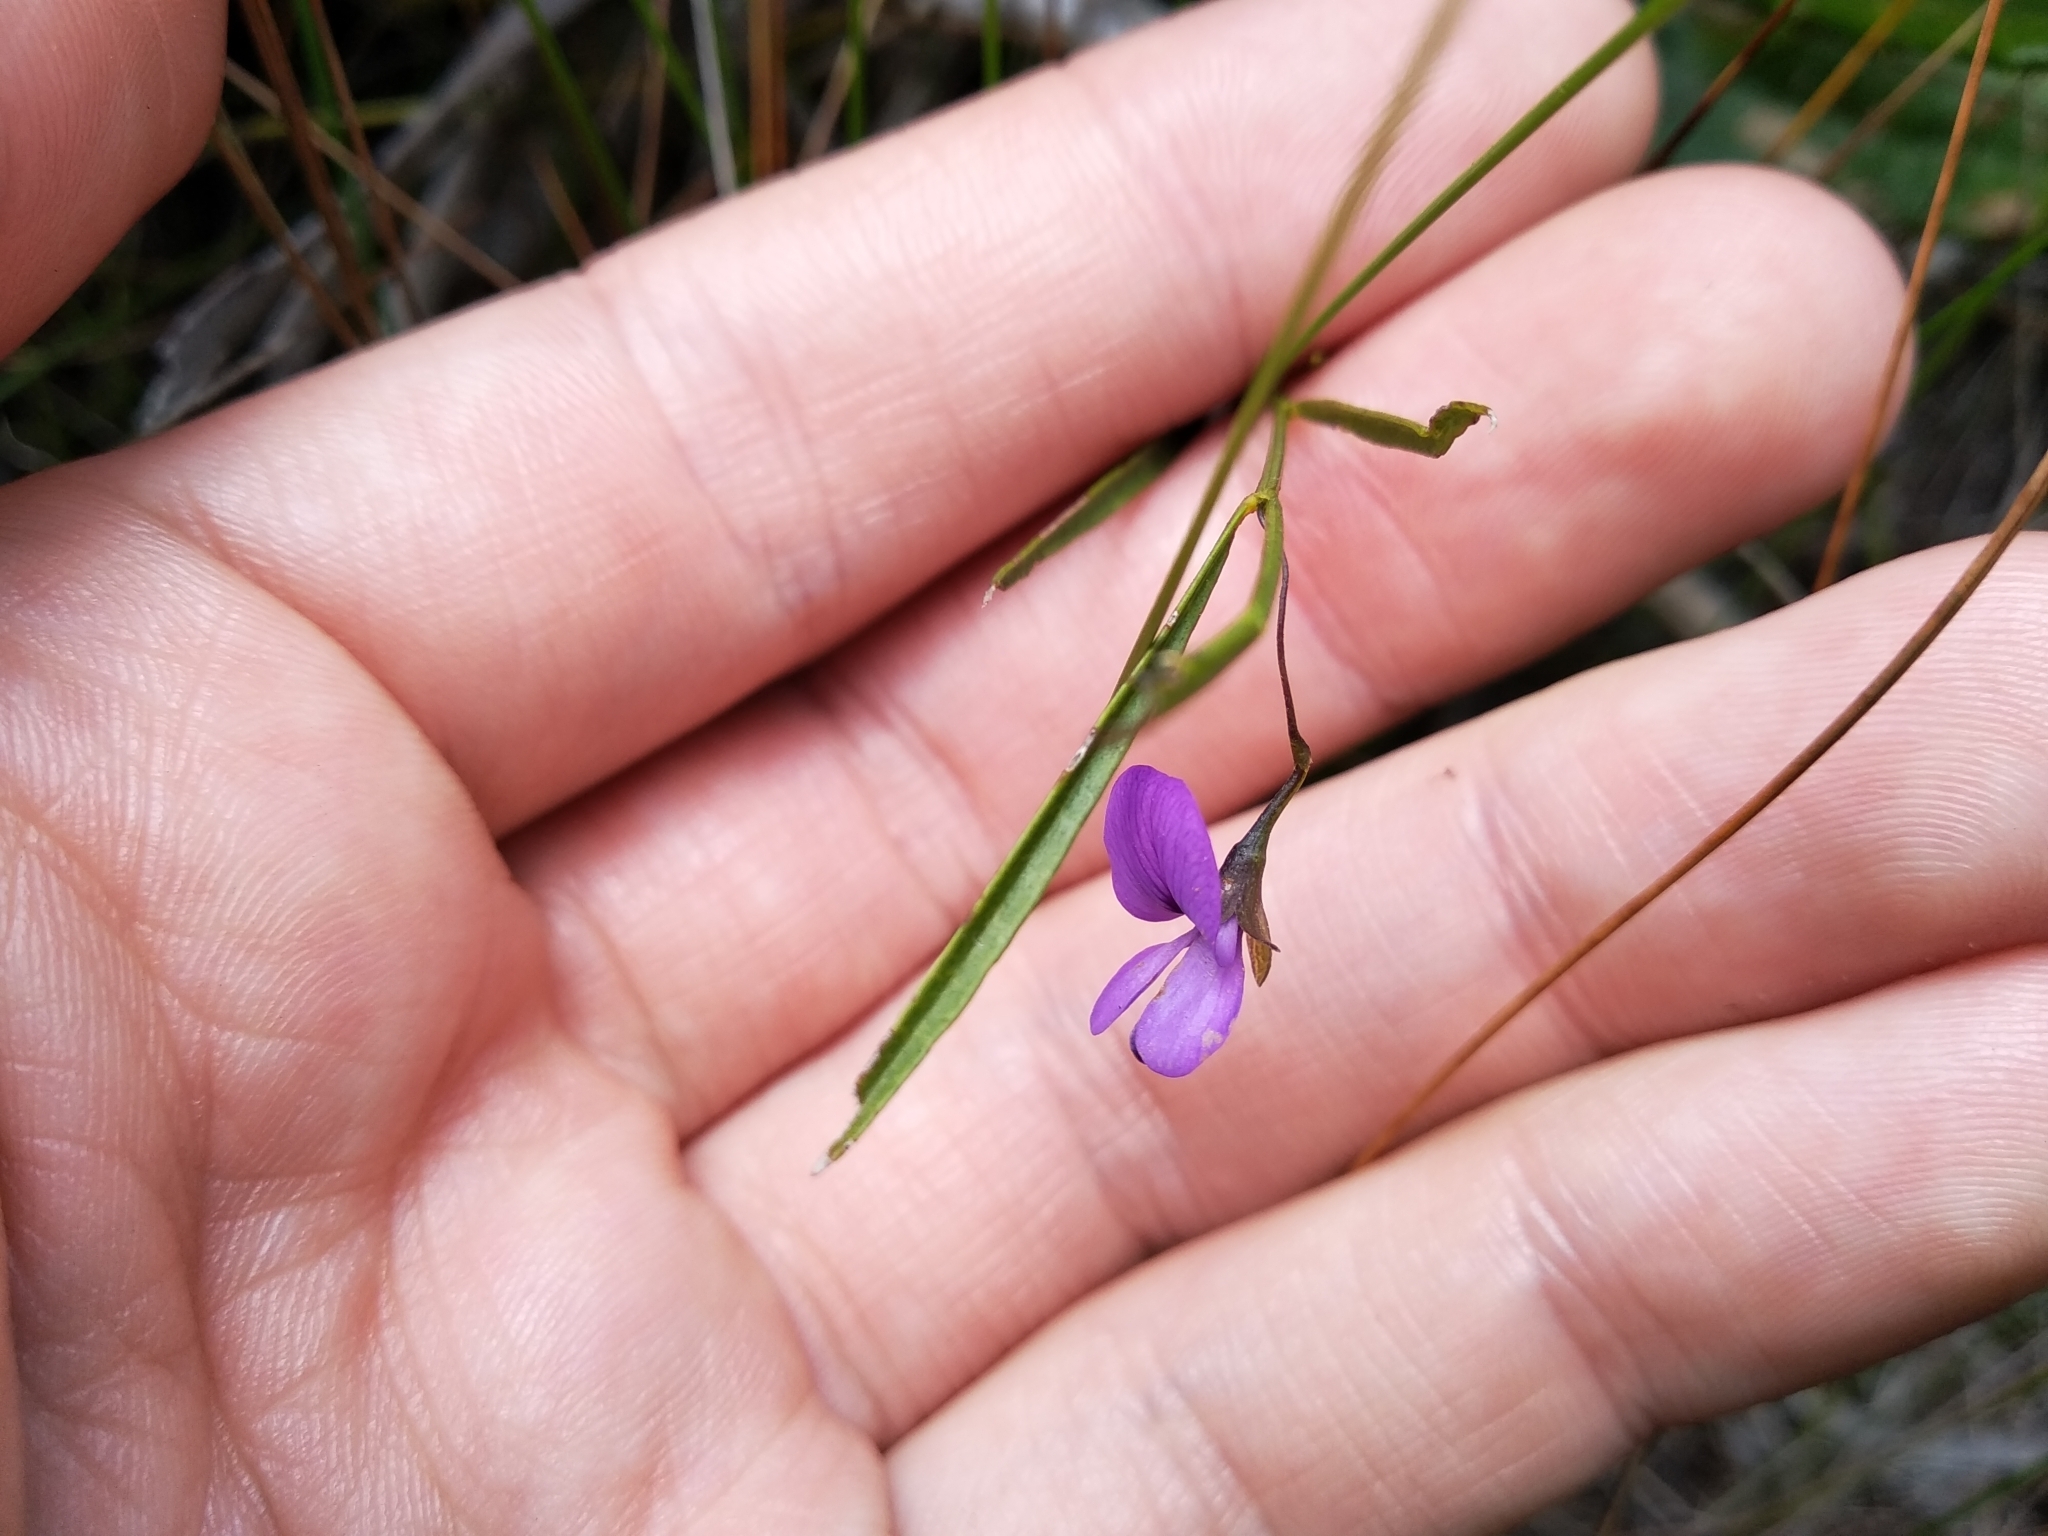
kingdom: Plantae
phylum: Tracheophyta
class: Magnoliopsida
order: Fabales
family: Fabaceae
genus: Psoralea
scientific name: Psoralea laxa
